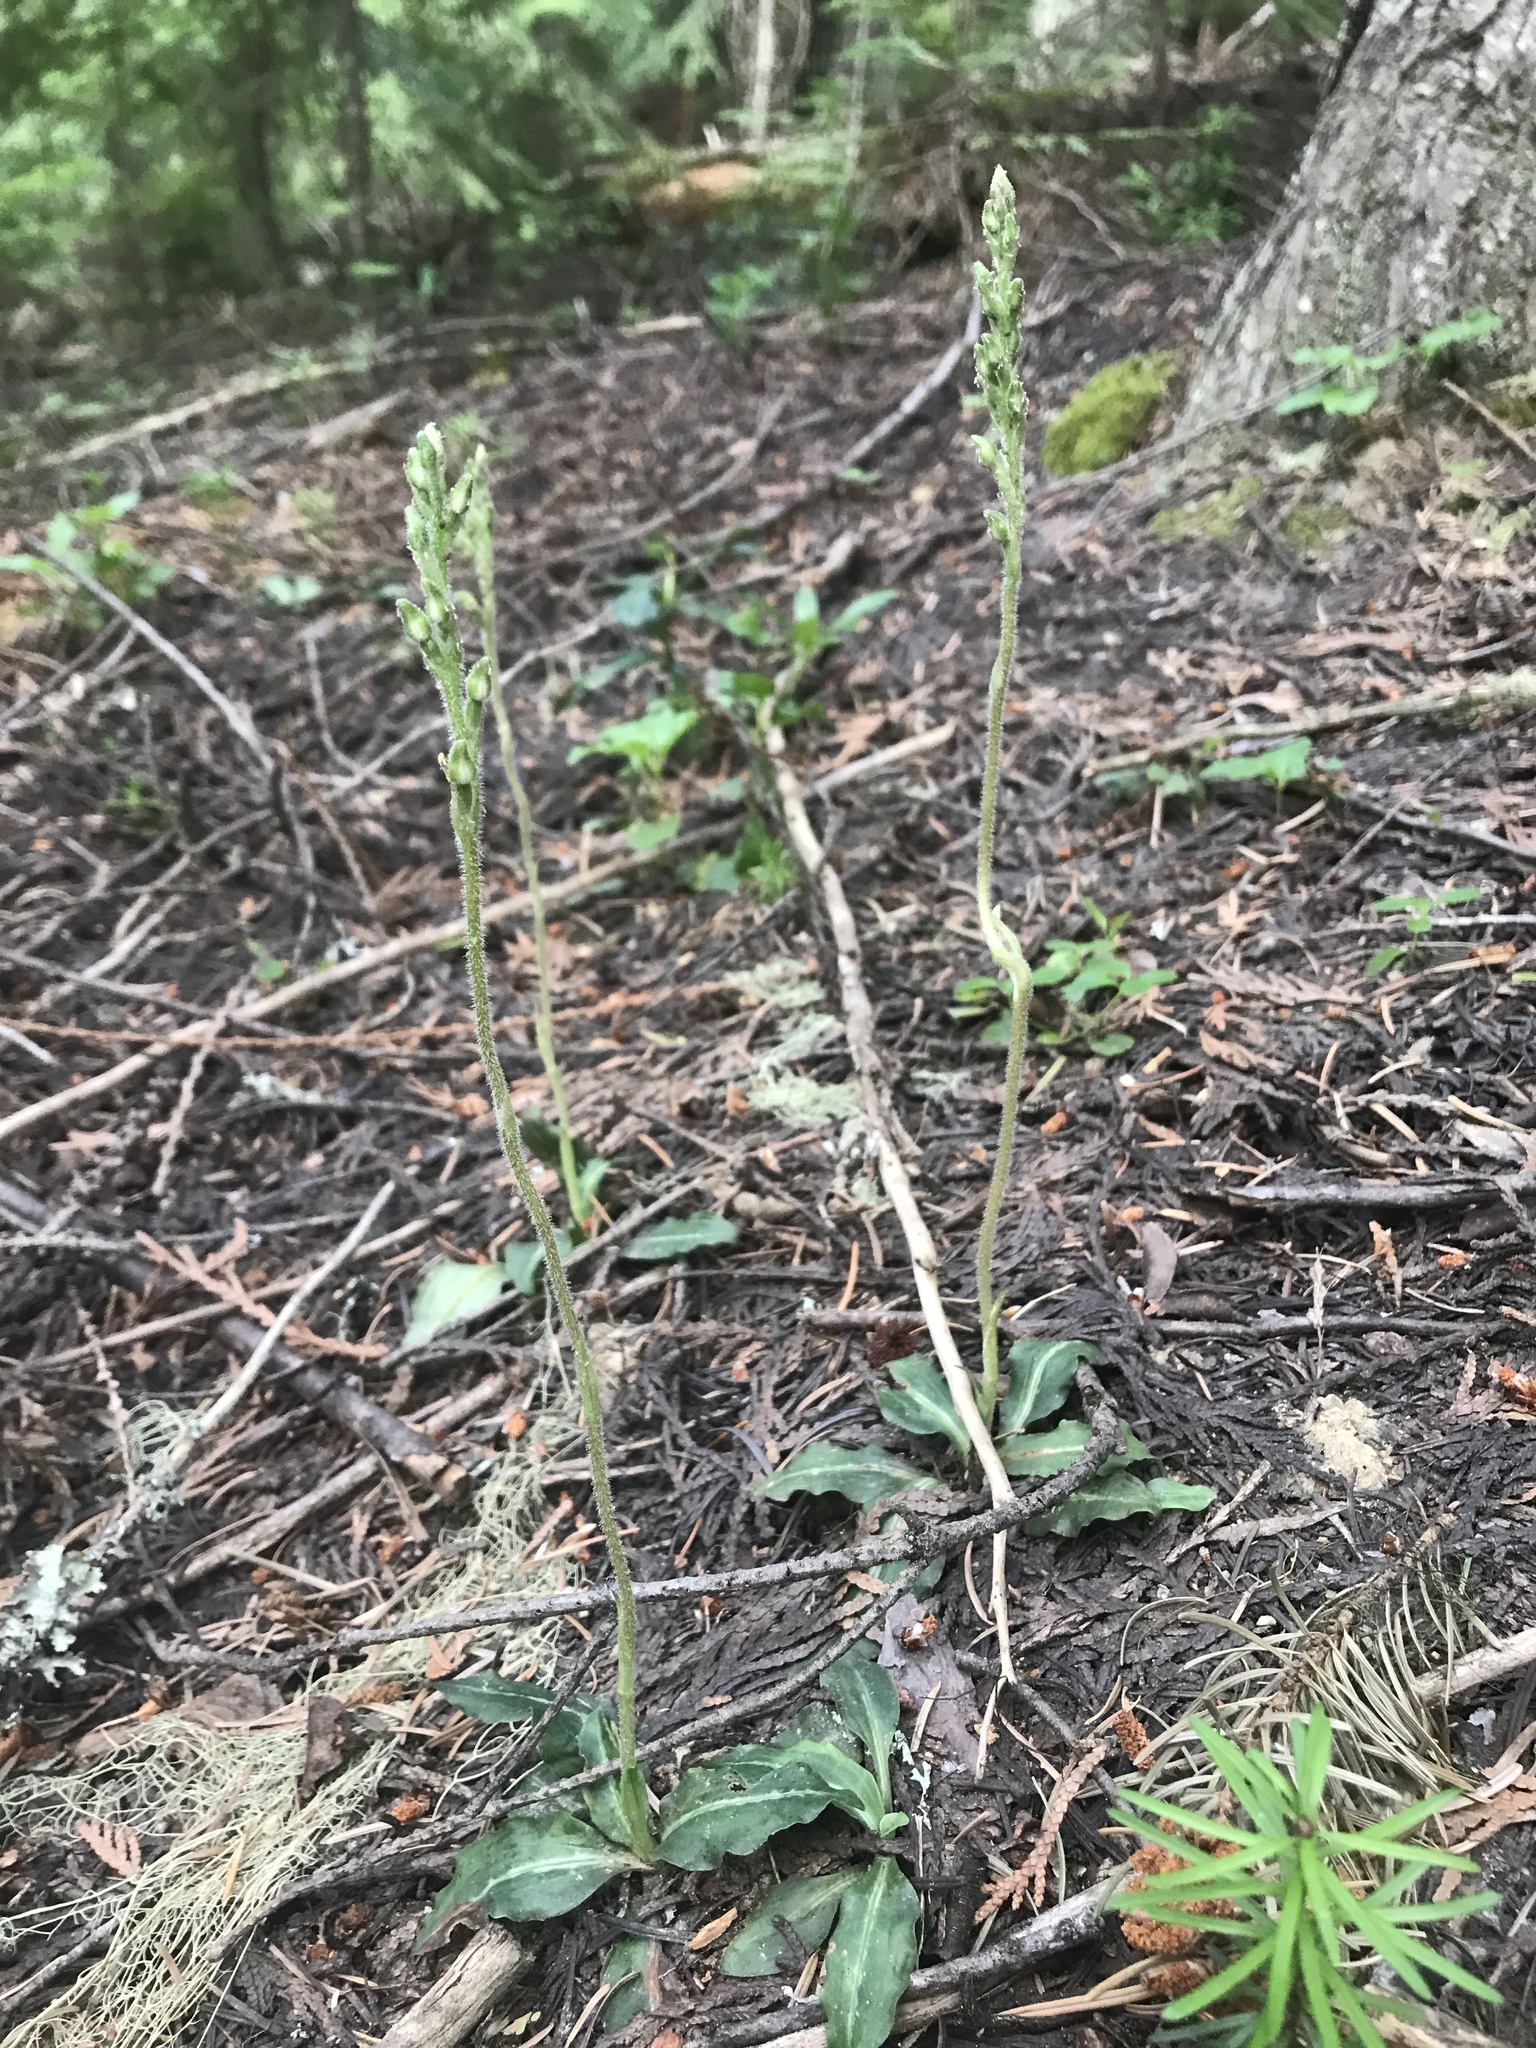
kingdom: Plantae
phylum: Tracheophyta
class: Liliopsida
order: Asparagales
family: Orchidaceae
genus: Goodyera
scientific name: Goodyera oblongifolia
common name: Giant rattlesnake-plantain
